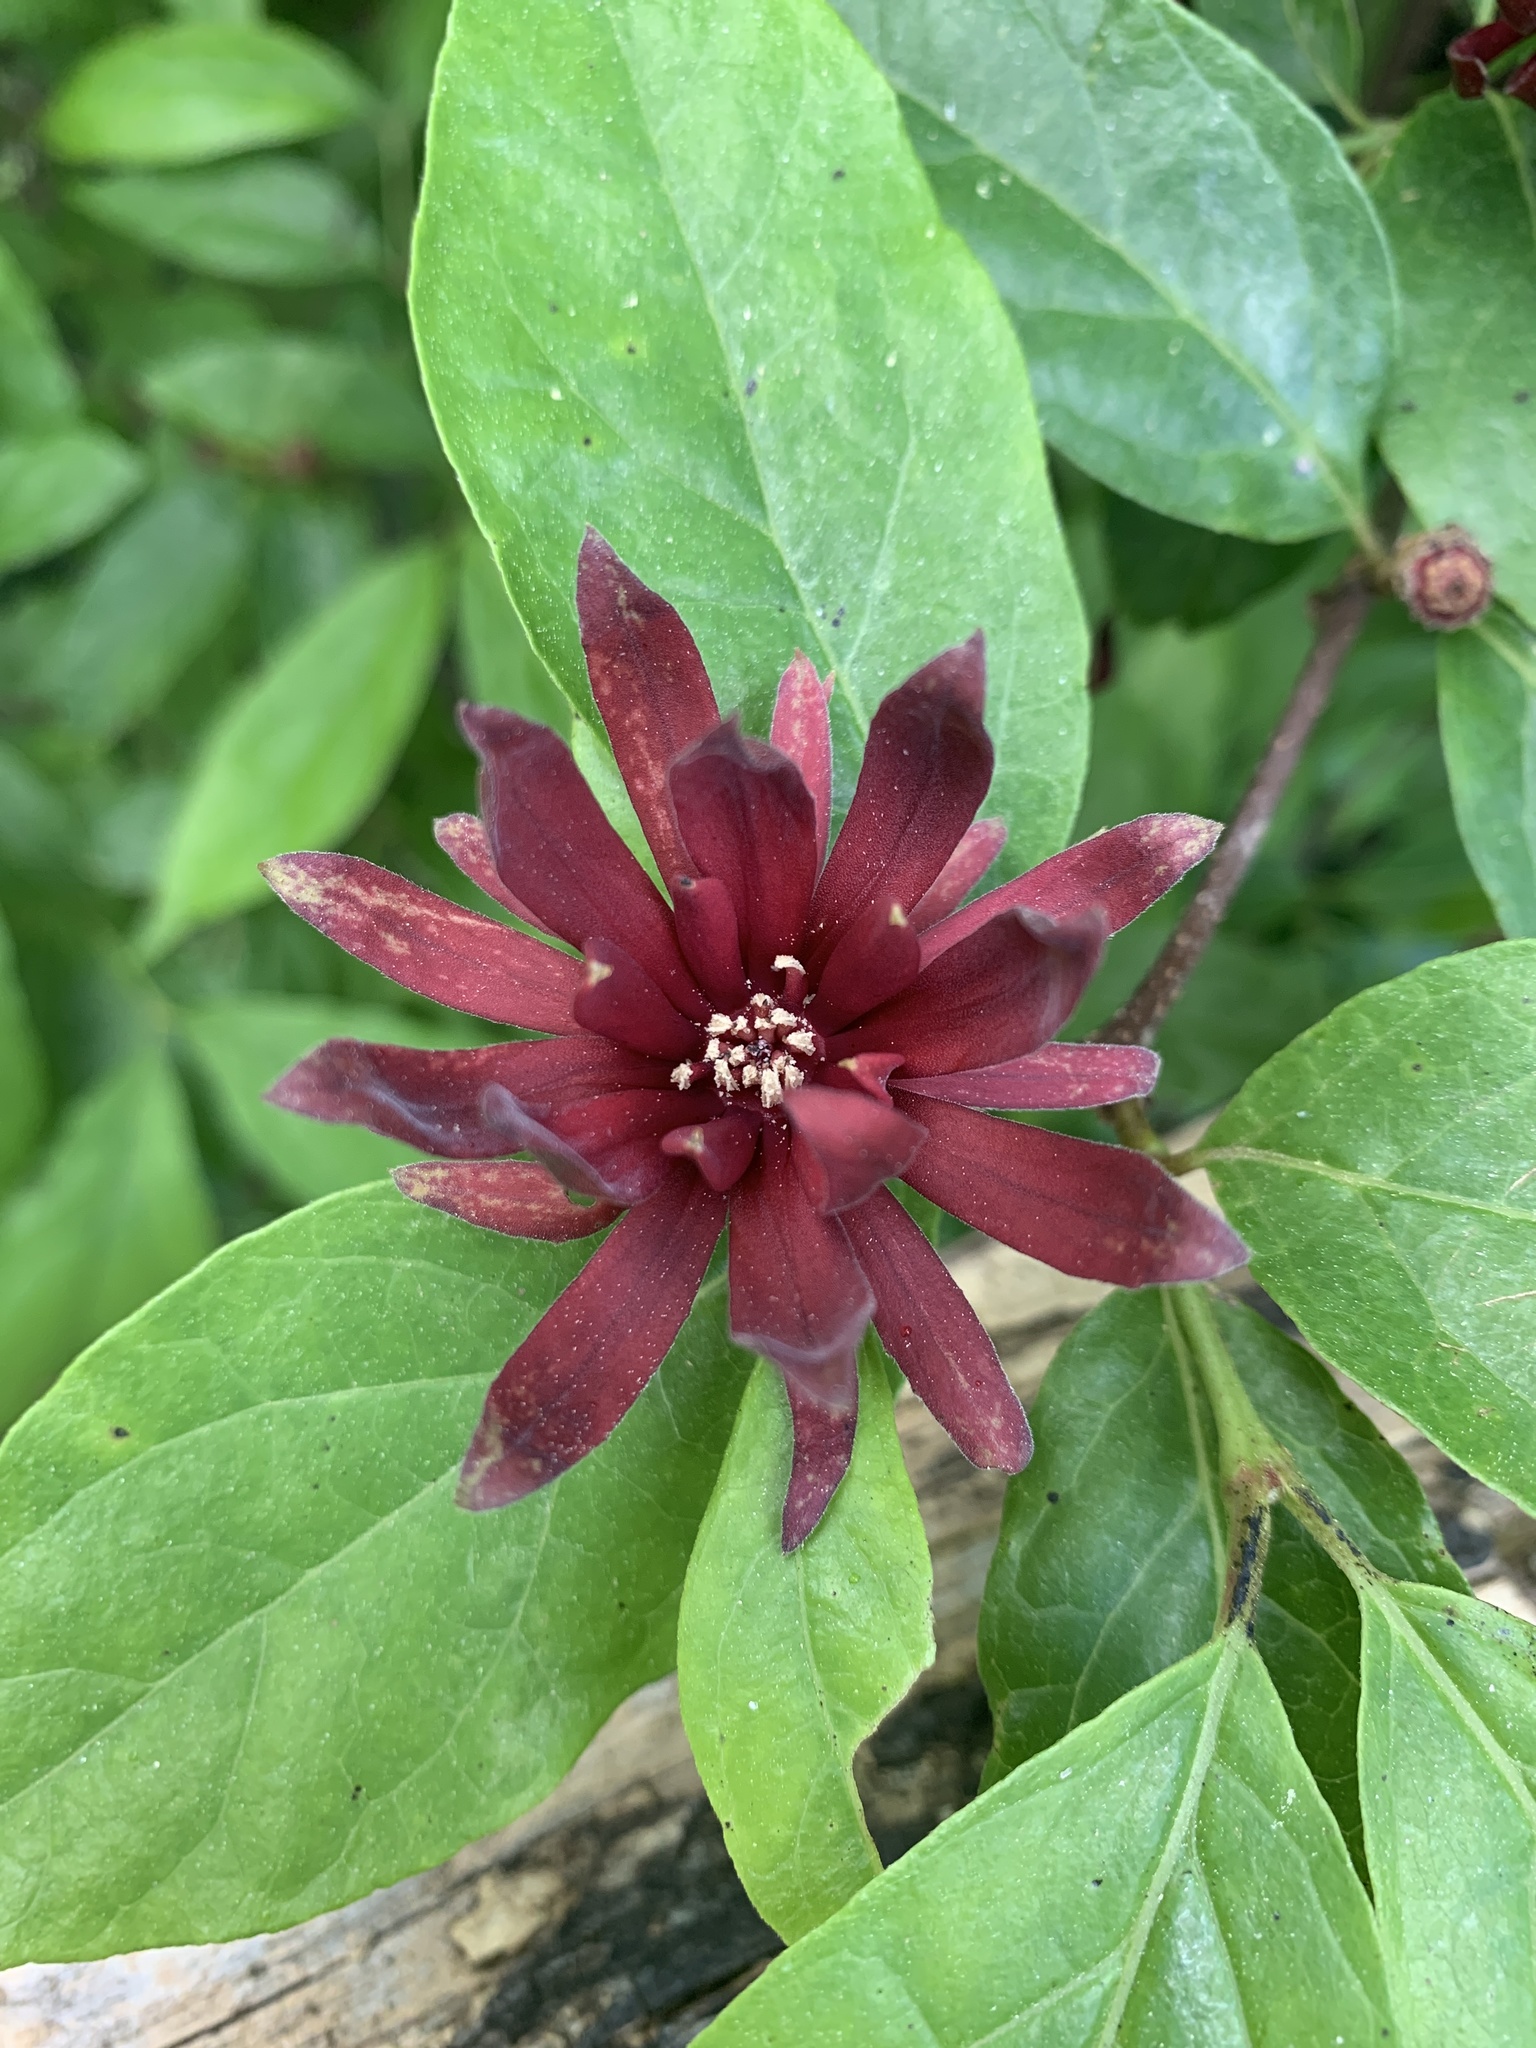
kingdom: Plantae
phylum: Tracheophyta
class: Magnoliopsida
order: Laurales
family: Calycanthaceae
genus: Calycanthus
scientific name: Calycanthus floridus
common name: Carolina-allspice
